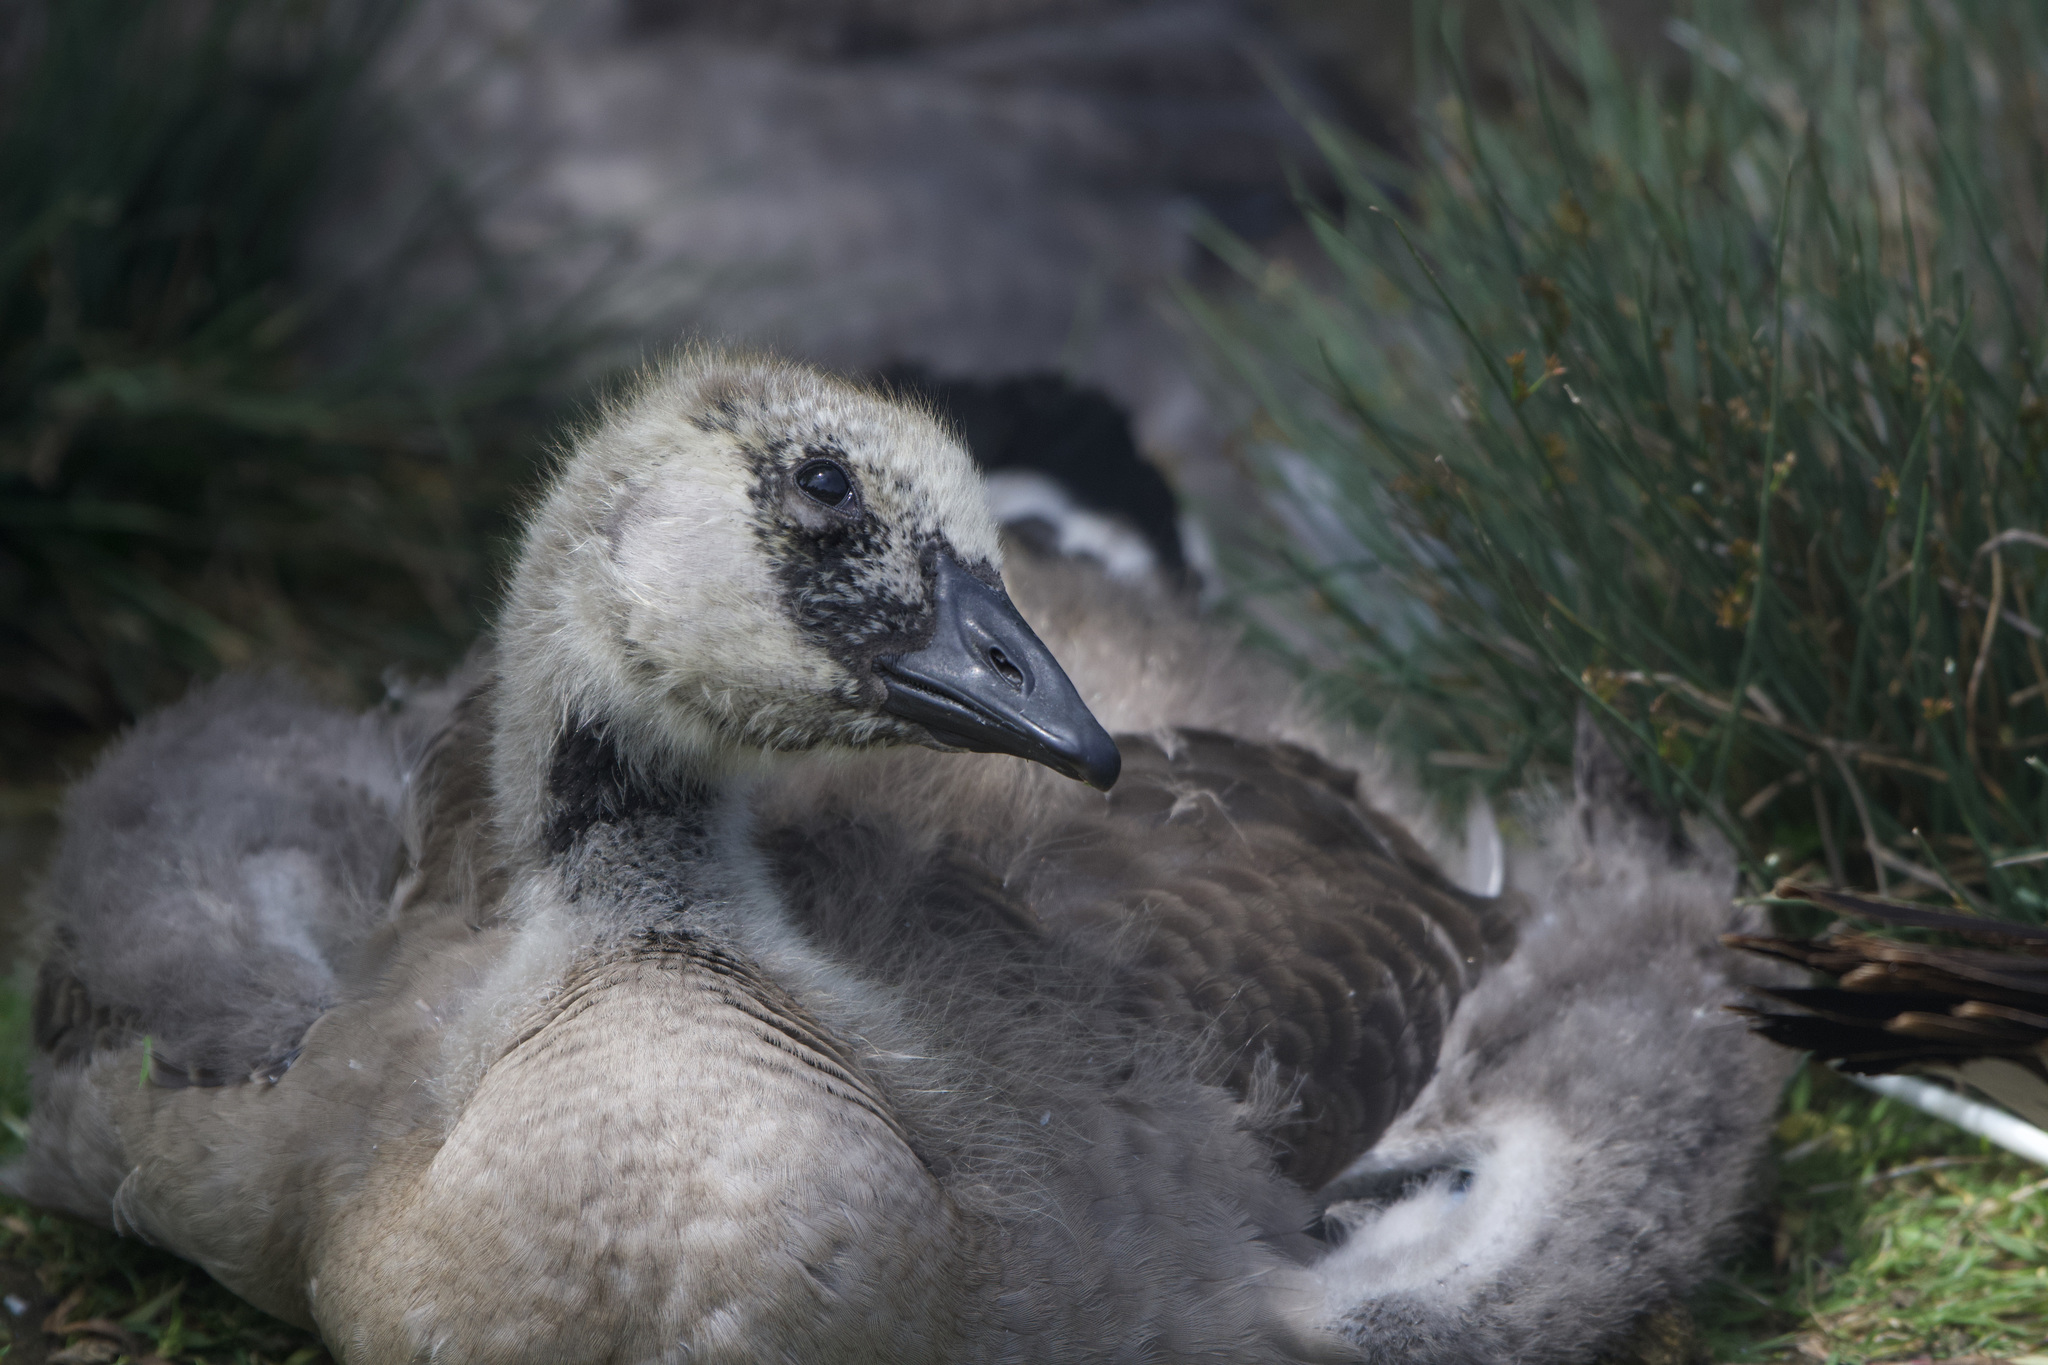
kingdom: Animalia
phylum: Chordata
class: Aves
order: Anseriformes
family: Anatidae
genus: Branta
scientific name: Branta canadensis
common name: Canada goose
